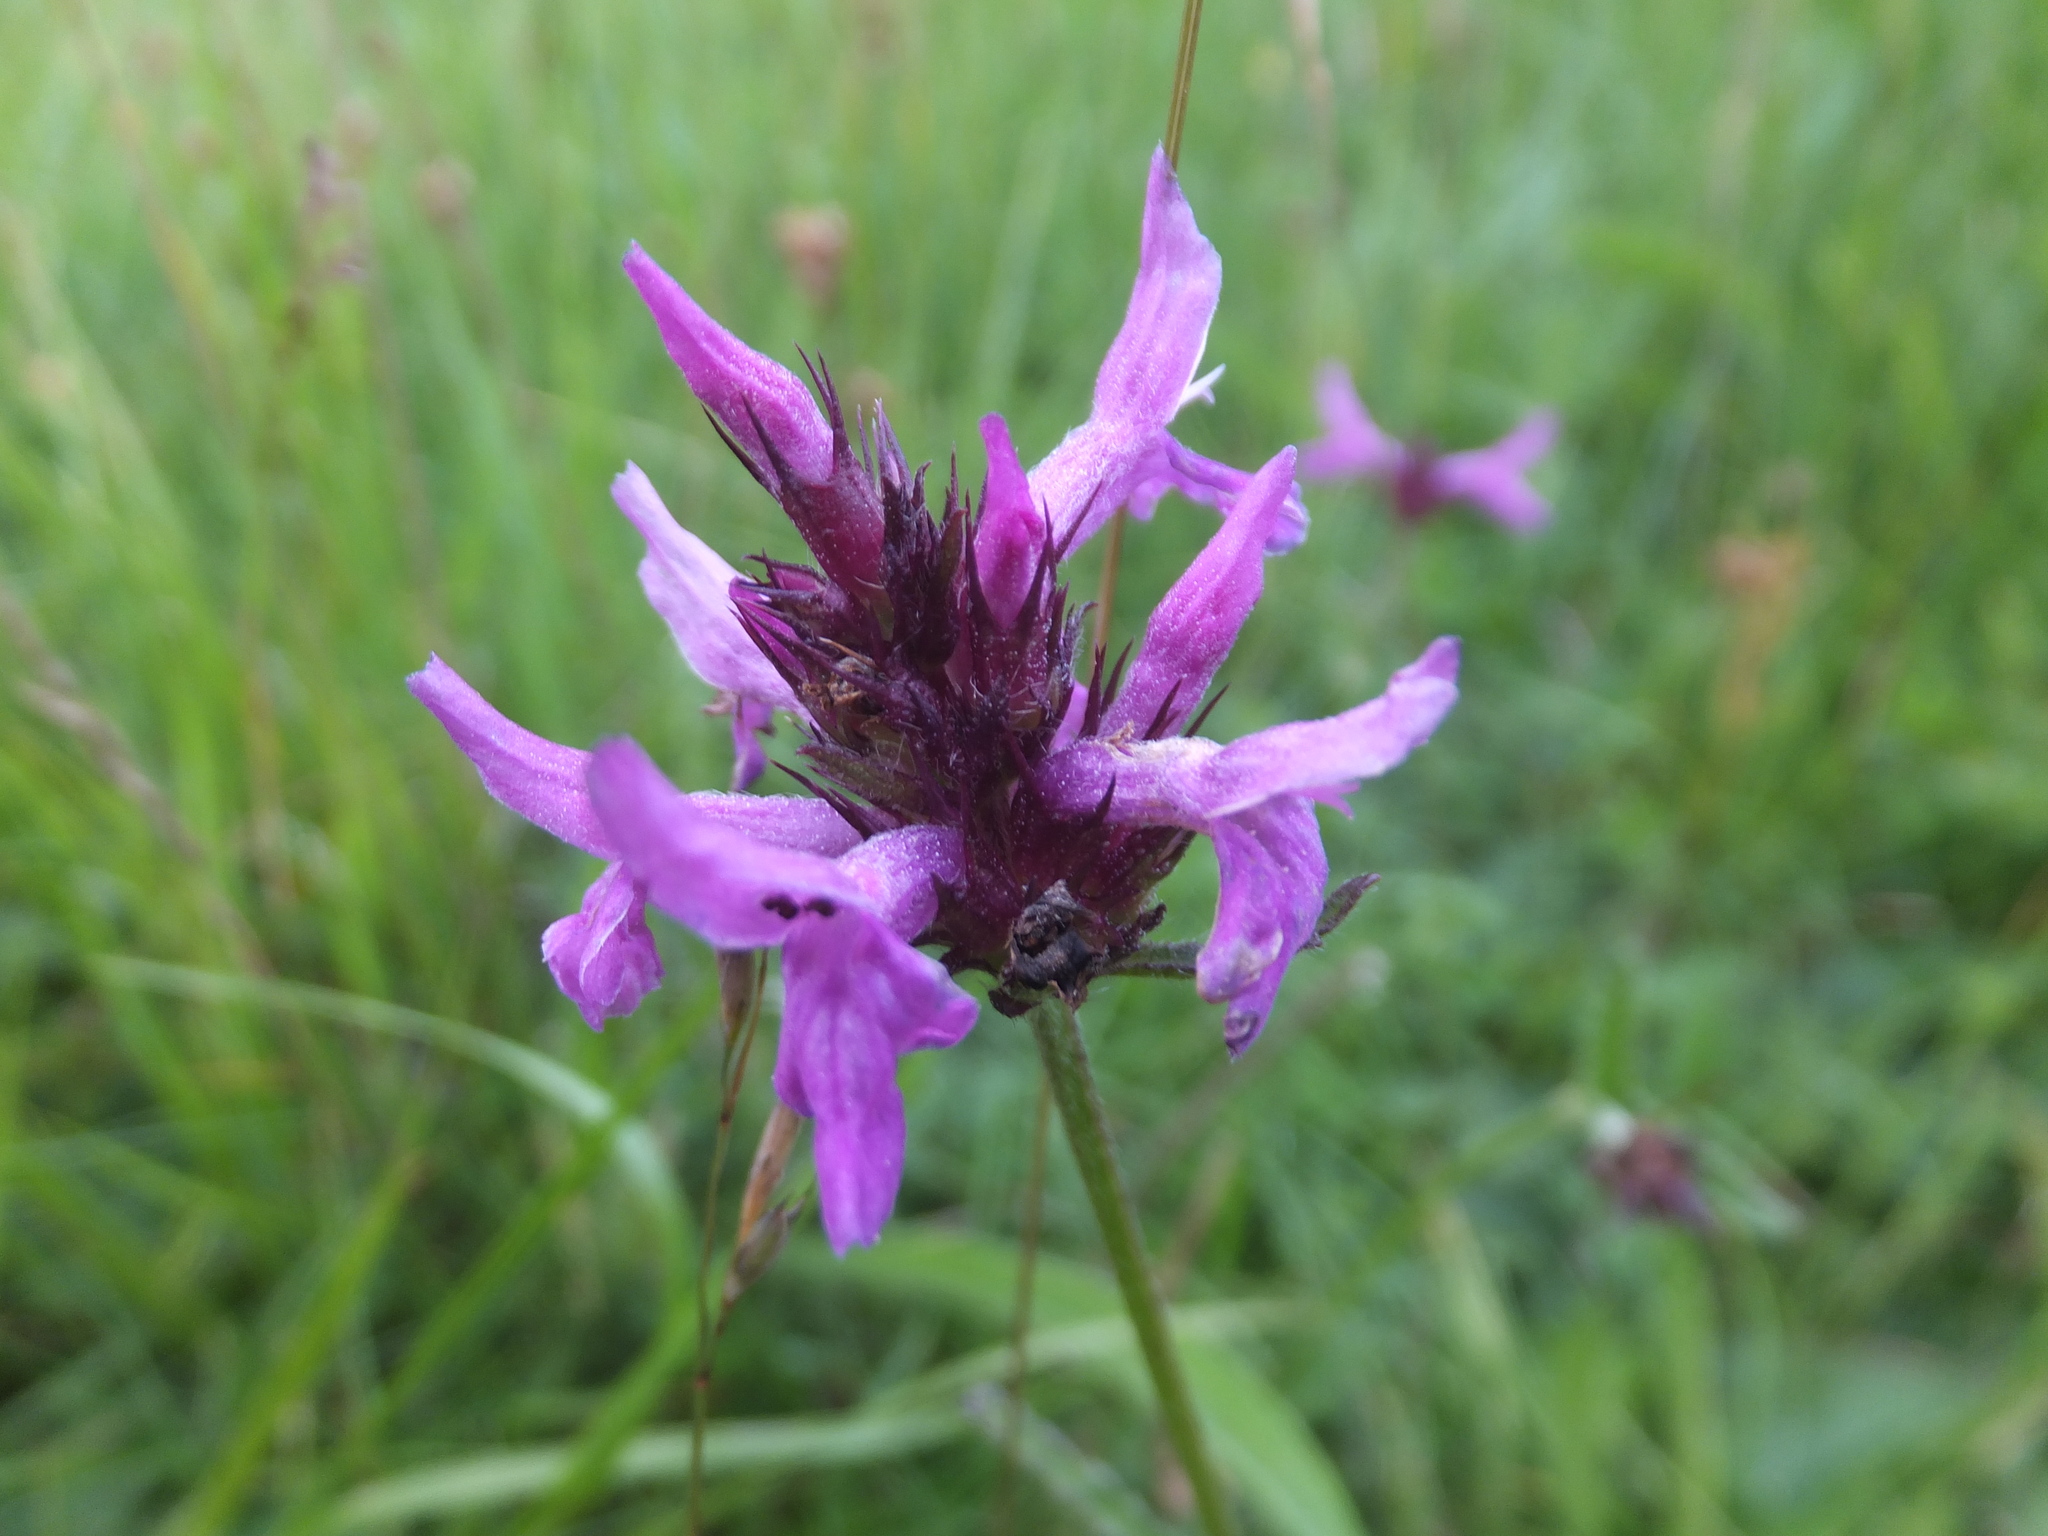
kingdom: Plantae
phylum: Tracheophyta
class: Magnoliopsida
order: Lamiales
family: Lamiaceae
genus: Betonica
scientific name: Betonica officinalis
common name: Bishop's-wort
